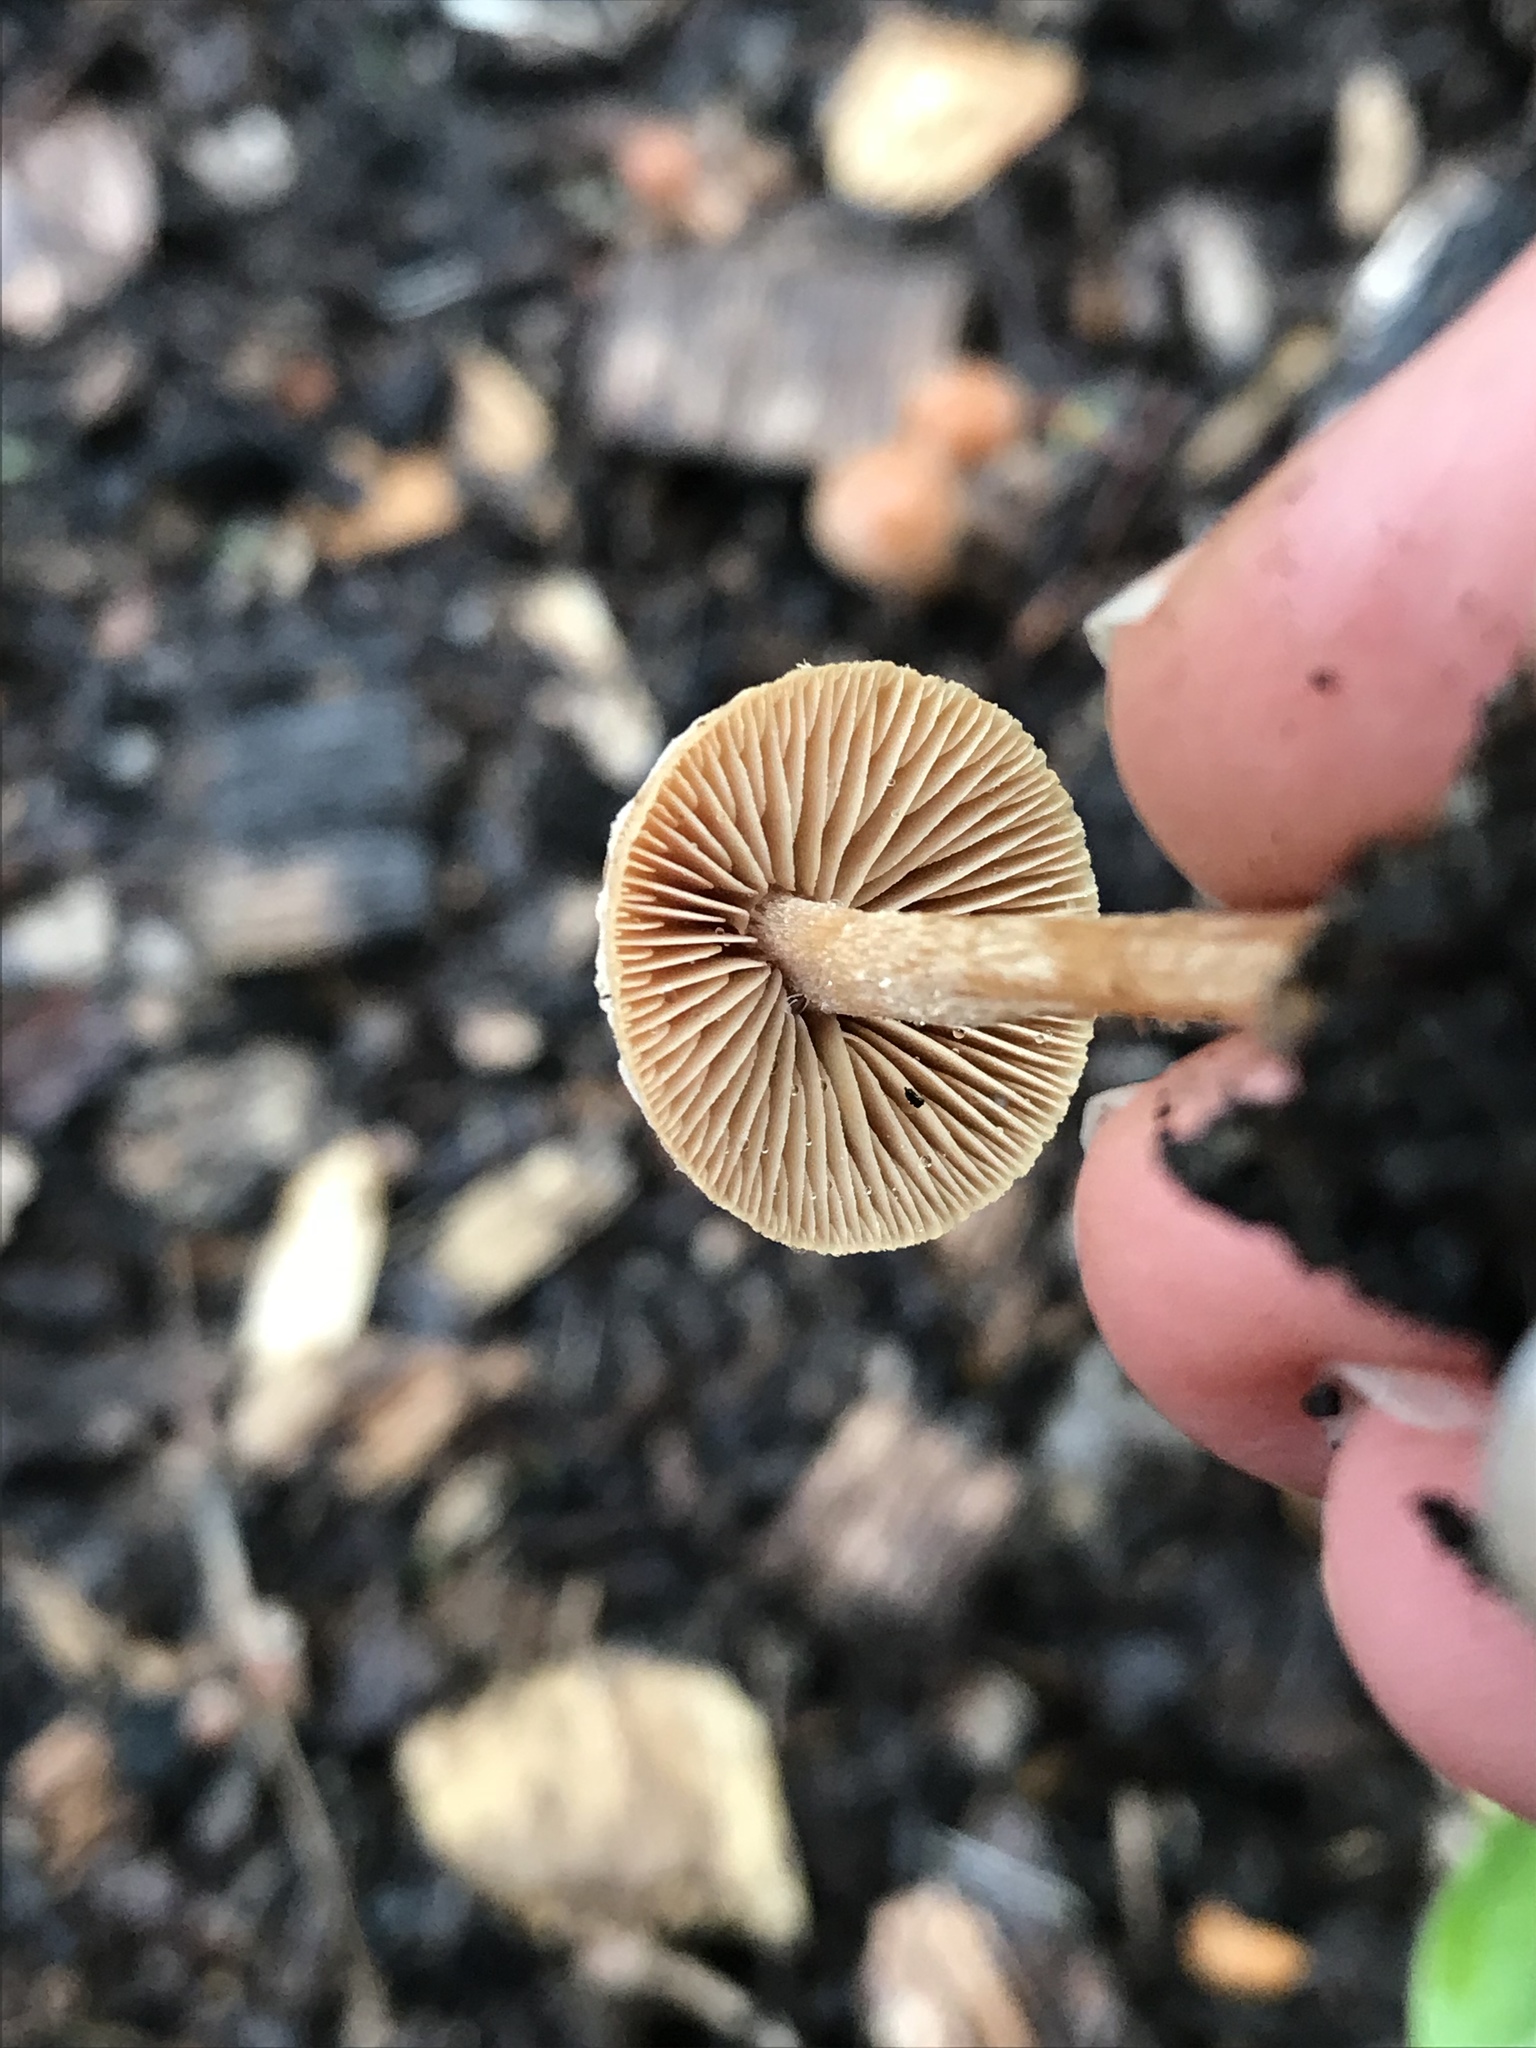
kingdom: Fungi
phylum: Basidiomycota
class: Agaricomycetes
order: Agaricales
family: Tubariaceae
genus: Tubaria
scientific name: Tubaria furfuracea
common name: Scurfy twiglet
